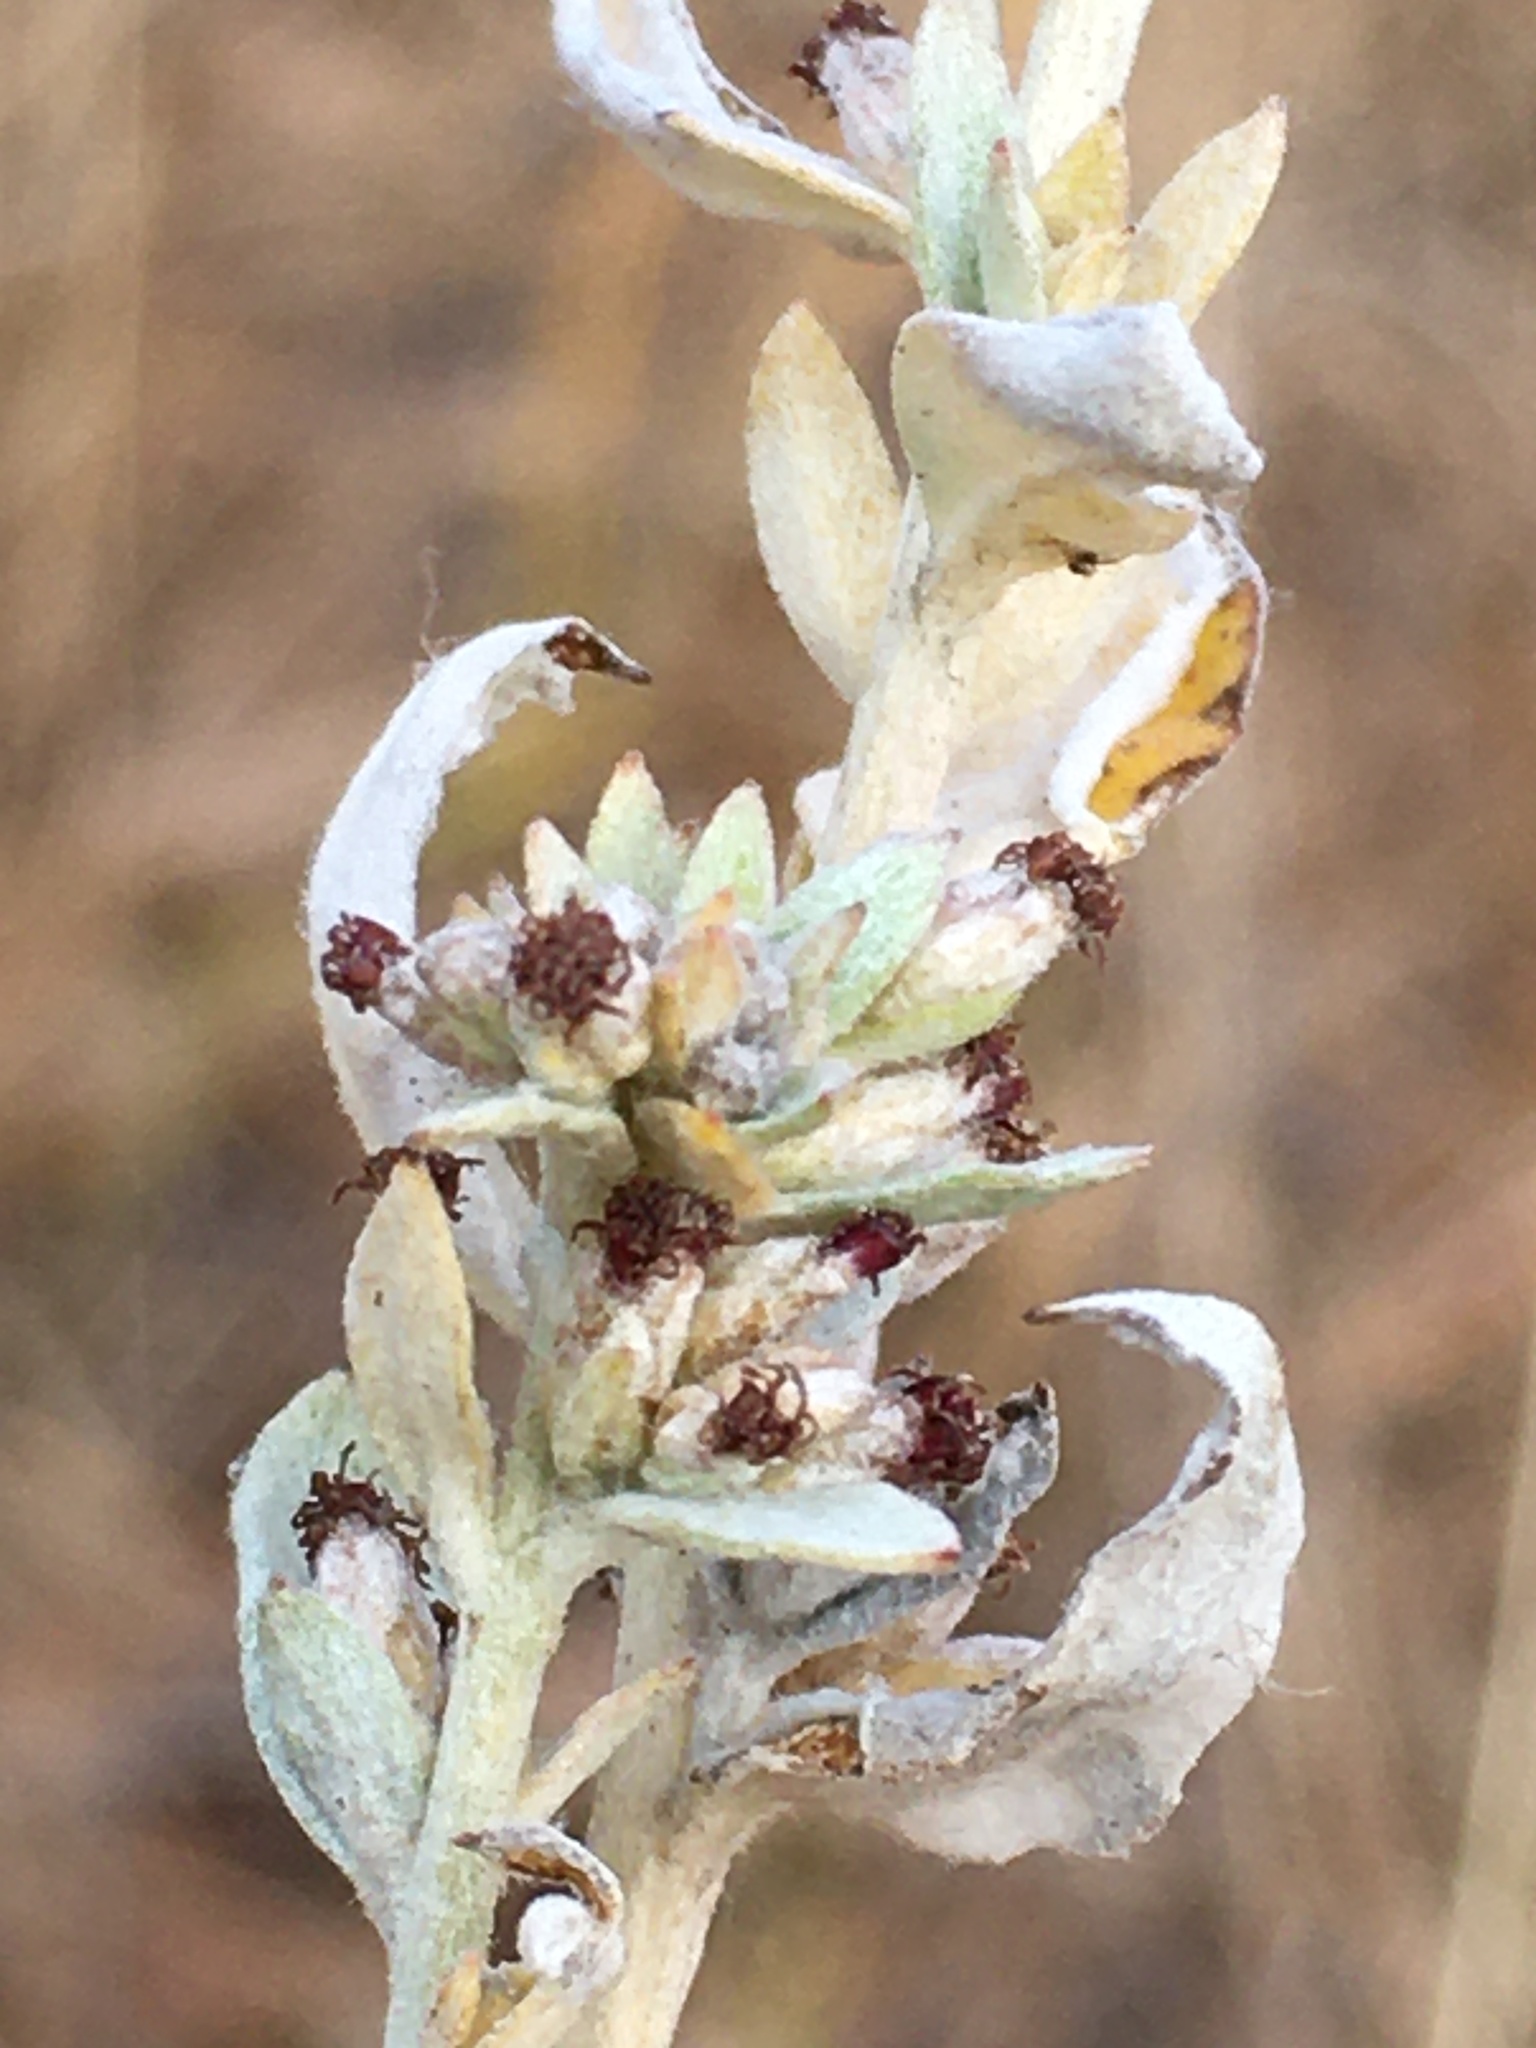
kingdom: Plantae
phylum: Tracheophyta
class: Magnoliopsida
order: Asterales
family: Asteraceae
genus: Artemisia
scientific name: Artemisia ludoviciana
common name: Western mugwort
